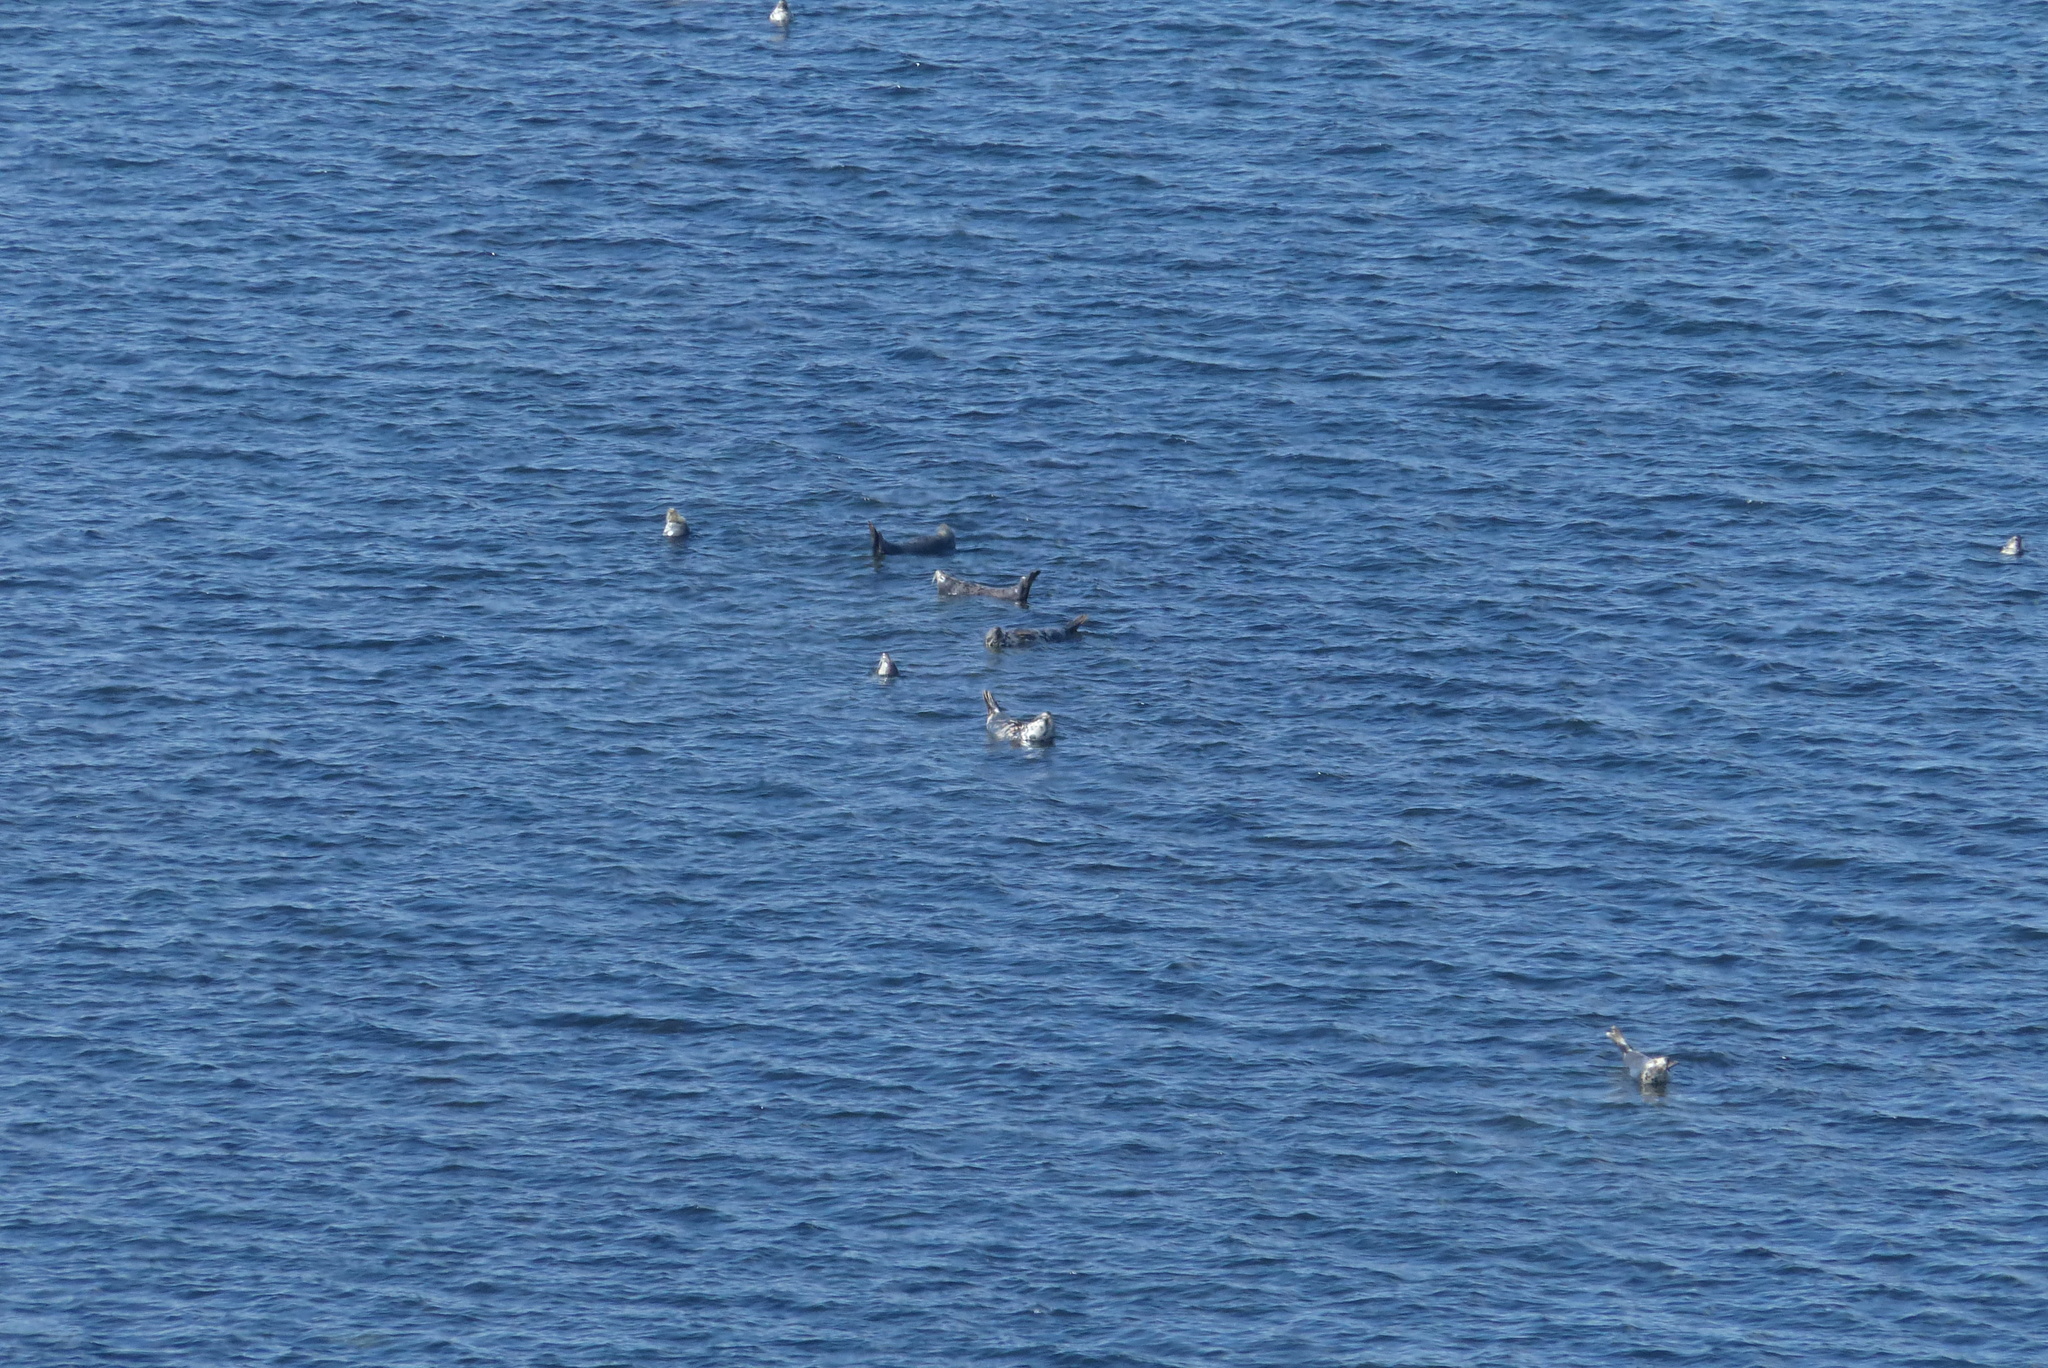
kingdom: Animalia
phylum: Chordata
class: Mammalia
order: Carnivora
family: Phocidae
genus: Halichoerus
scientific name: Halichoerus grypus
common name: Grey seal
